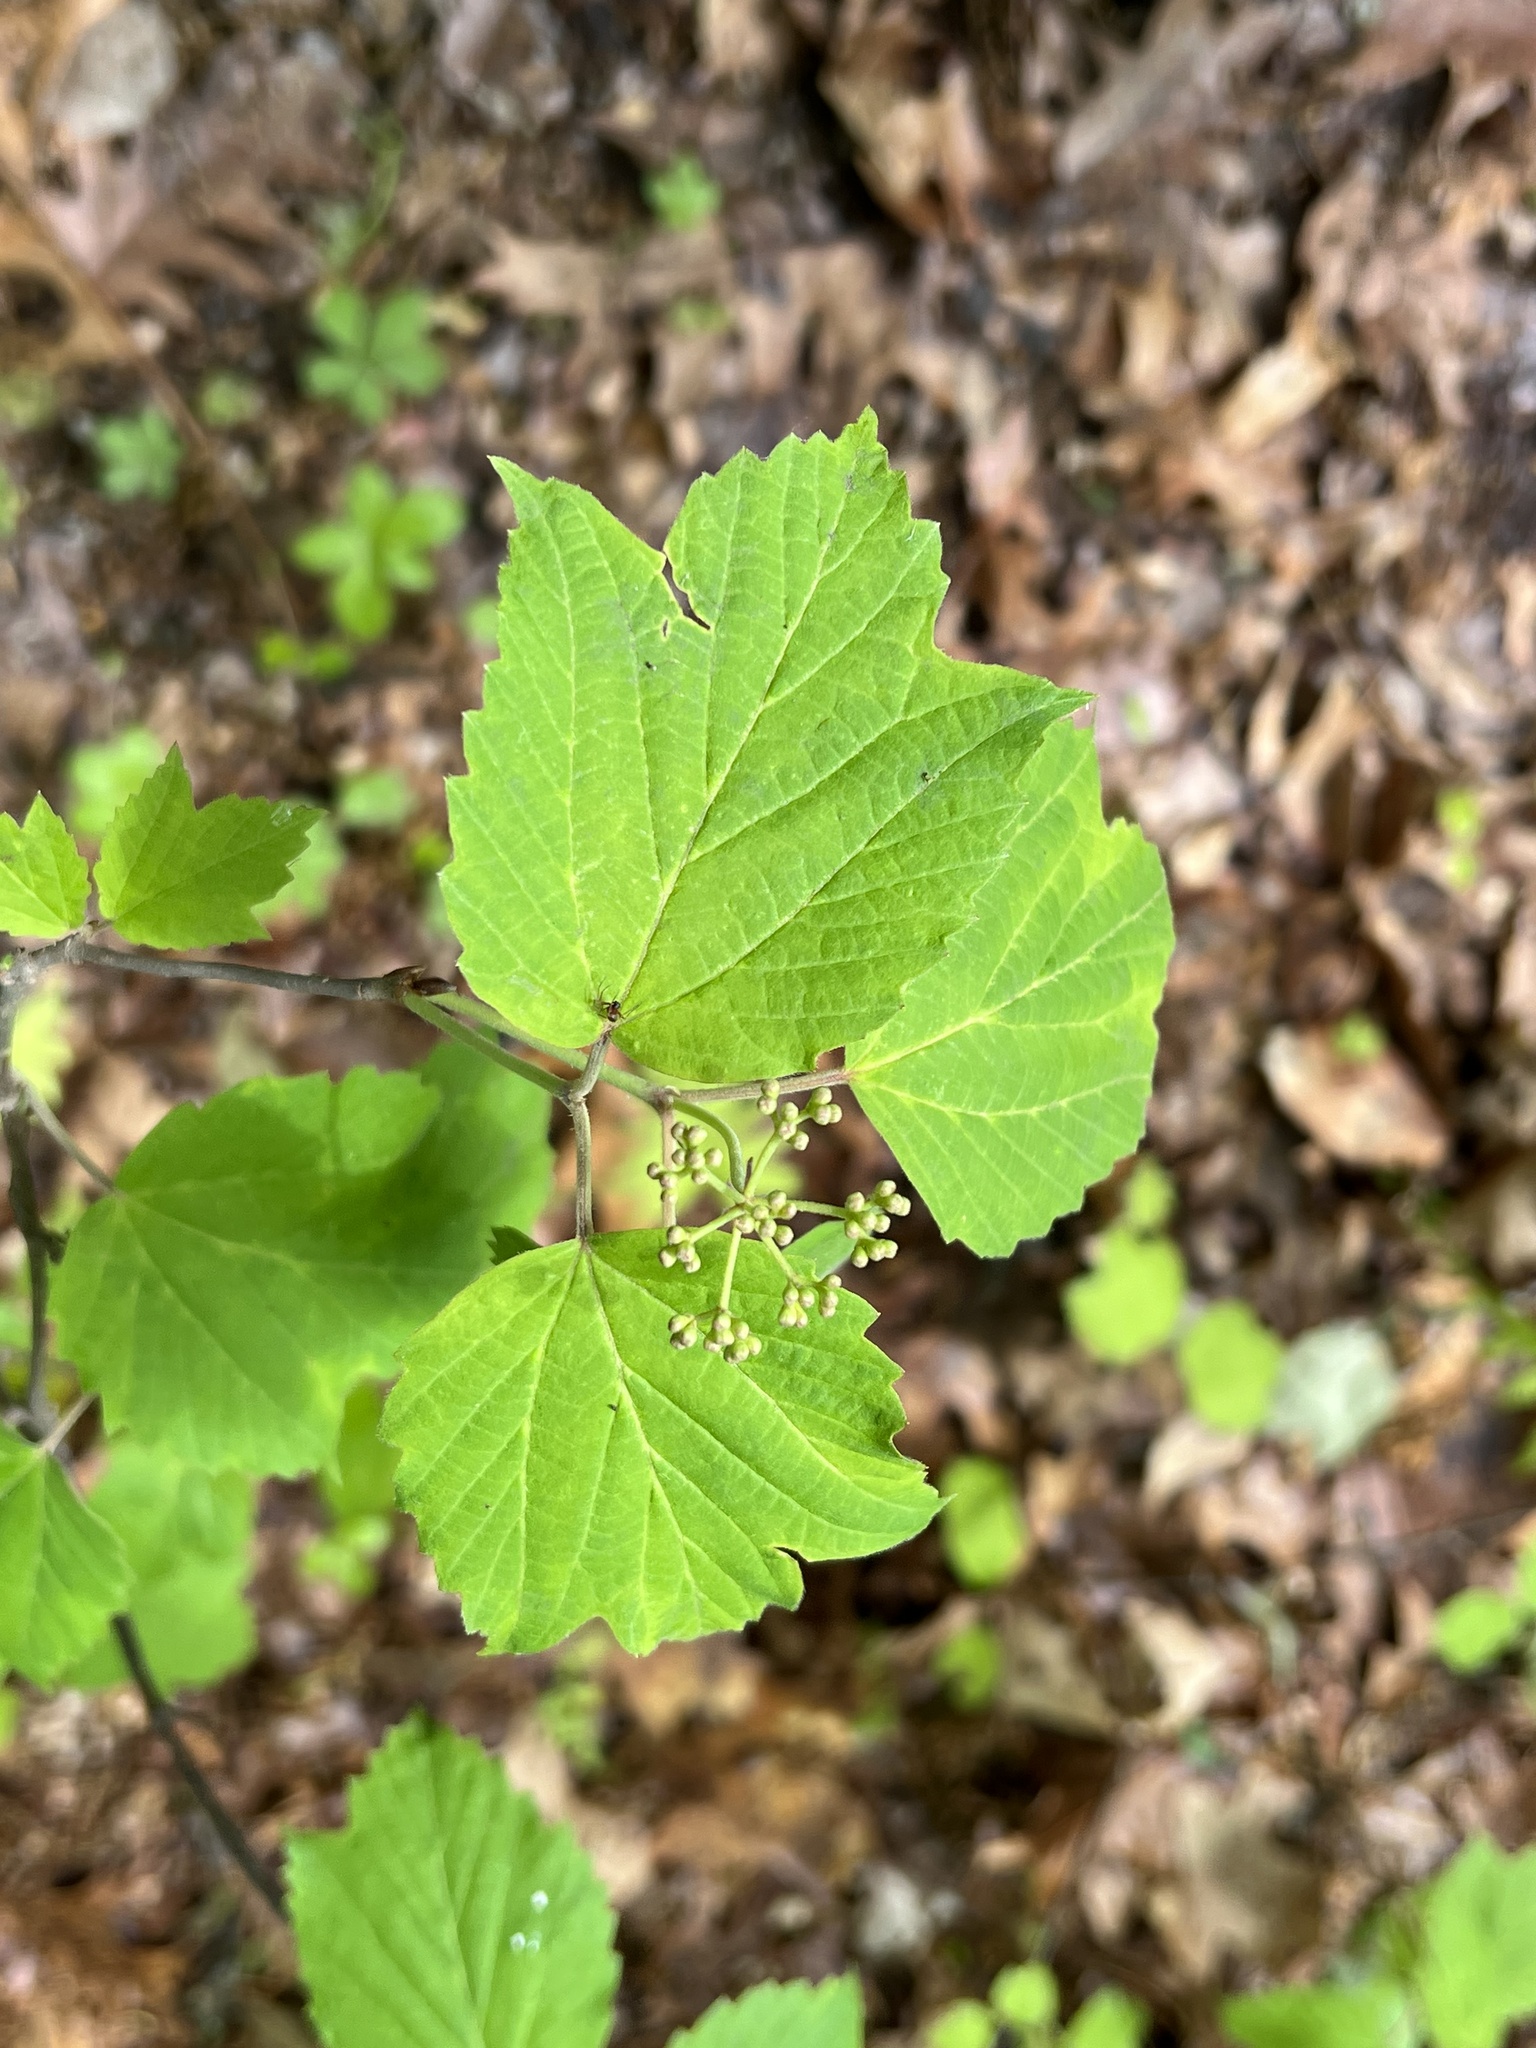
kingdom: Plantae
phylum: Tracheophyta
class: Magnoliopsida
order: Dipsacales
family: Viburnaceae
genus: Viburnum
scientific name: Viburnum acerifolium
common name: Dockmackie
